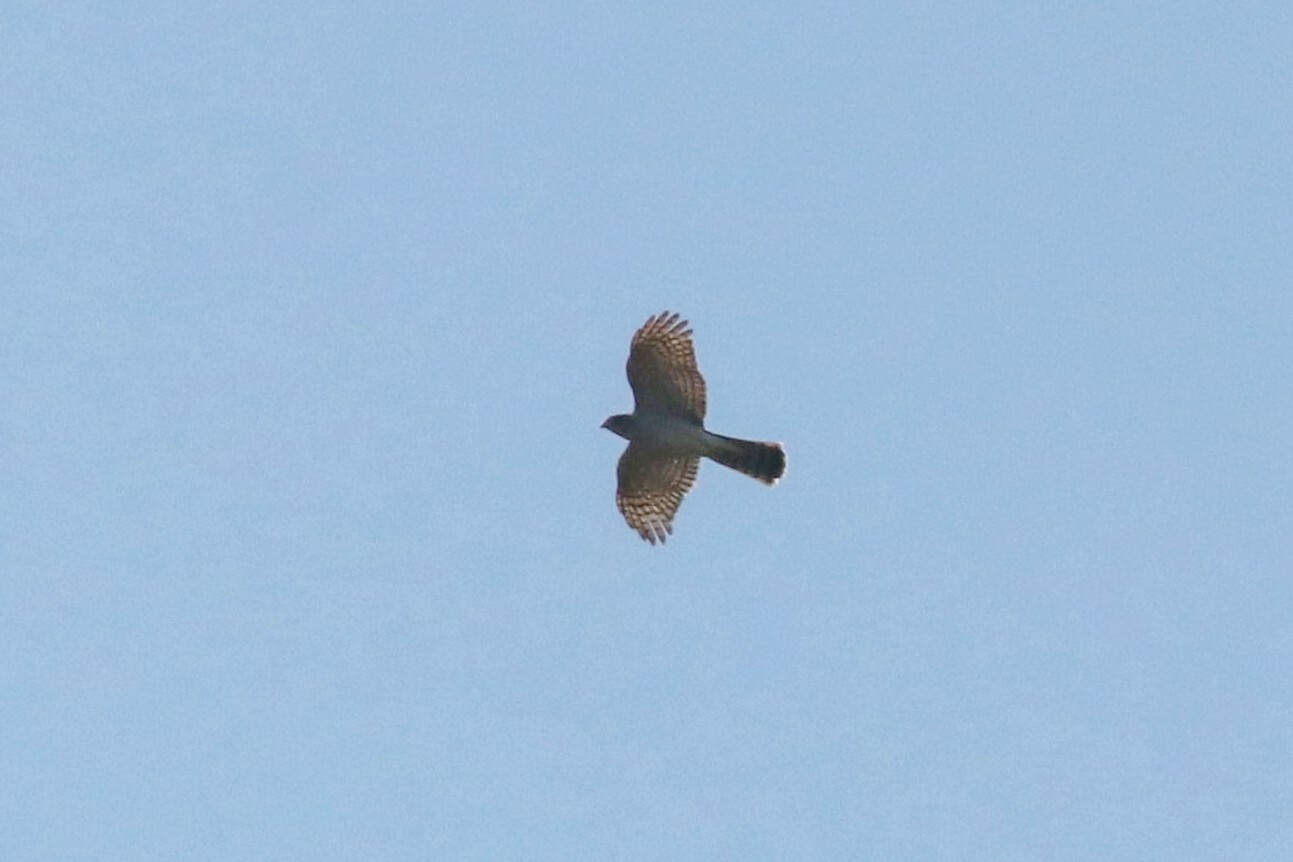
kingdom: Animalia
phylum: Chordata
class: Aves
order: Accipitriformes
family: Accipitridae
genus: Accipiter
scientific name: Accipiter nisus
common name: Eurasian sparrowhawk
